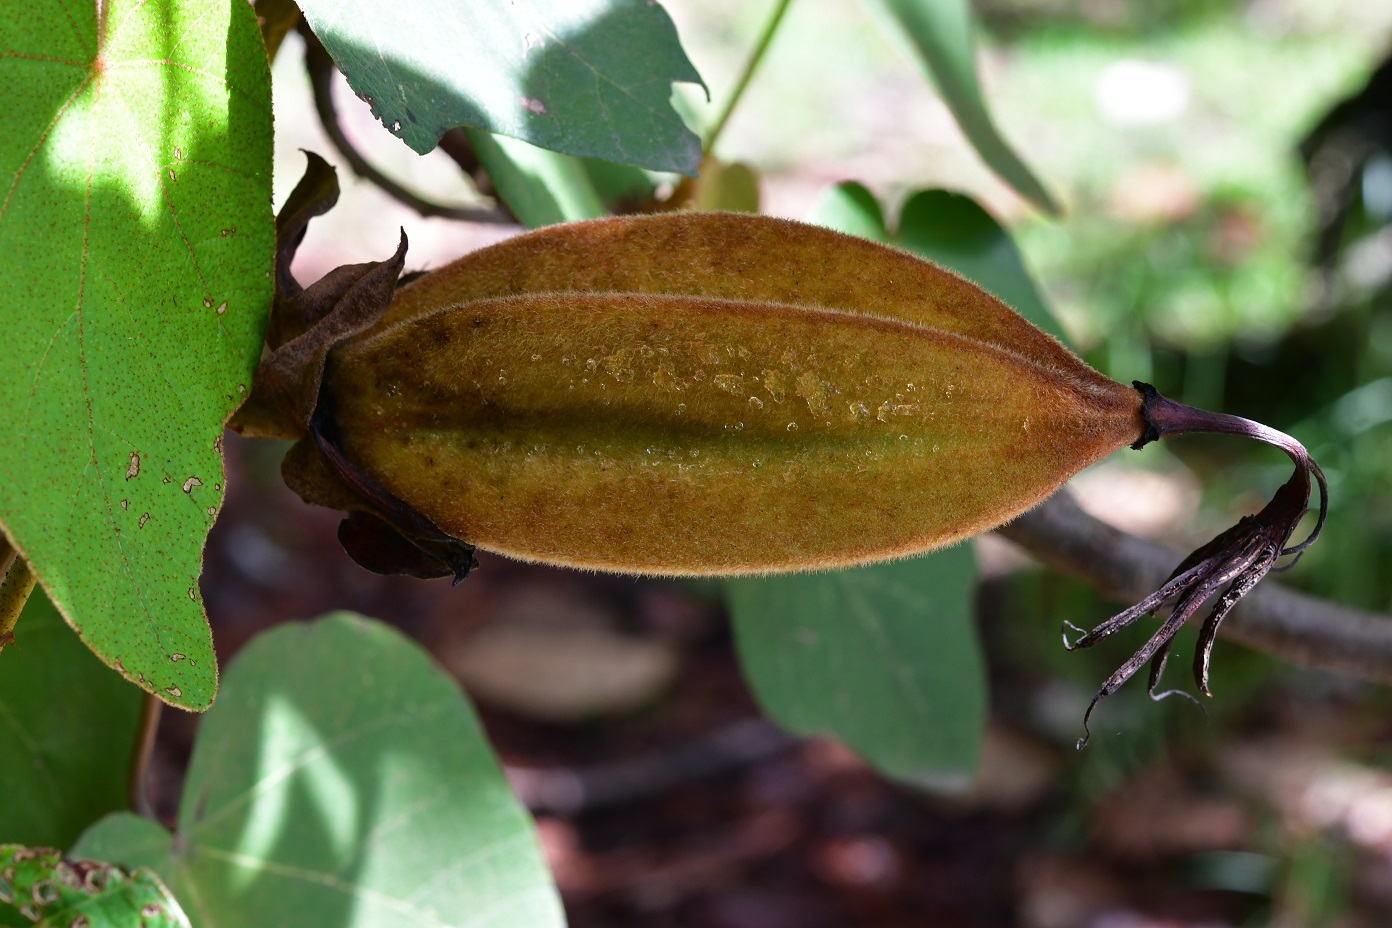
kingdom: Plantae
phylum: Tracheophyta
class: Magnoliopsida
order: Malvales
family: Malvaceae
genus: Chiranthodendron
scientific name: Chiranthodendron pentadactylon
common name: Mexican-hat-plant
